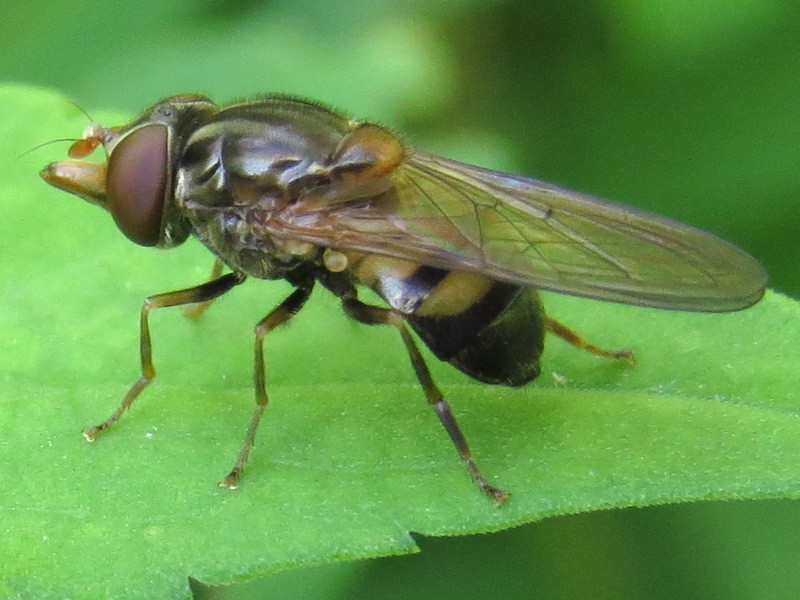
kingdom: Animalia
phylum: Arthropoda
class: Insecta
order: Diptera
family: Syrphidae
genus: Rhingia
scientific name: Rhingia nasica
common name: American snout fly
